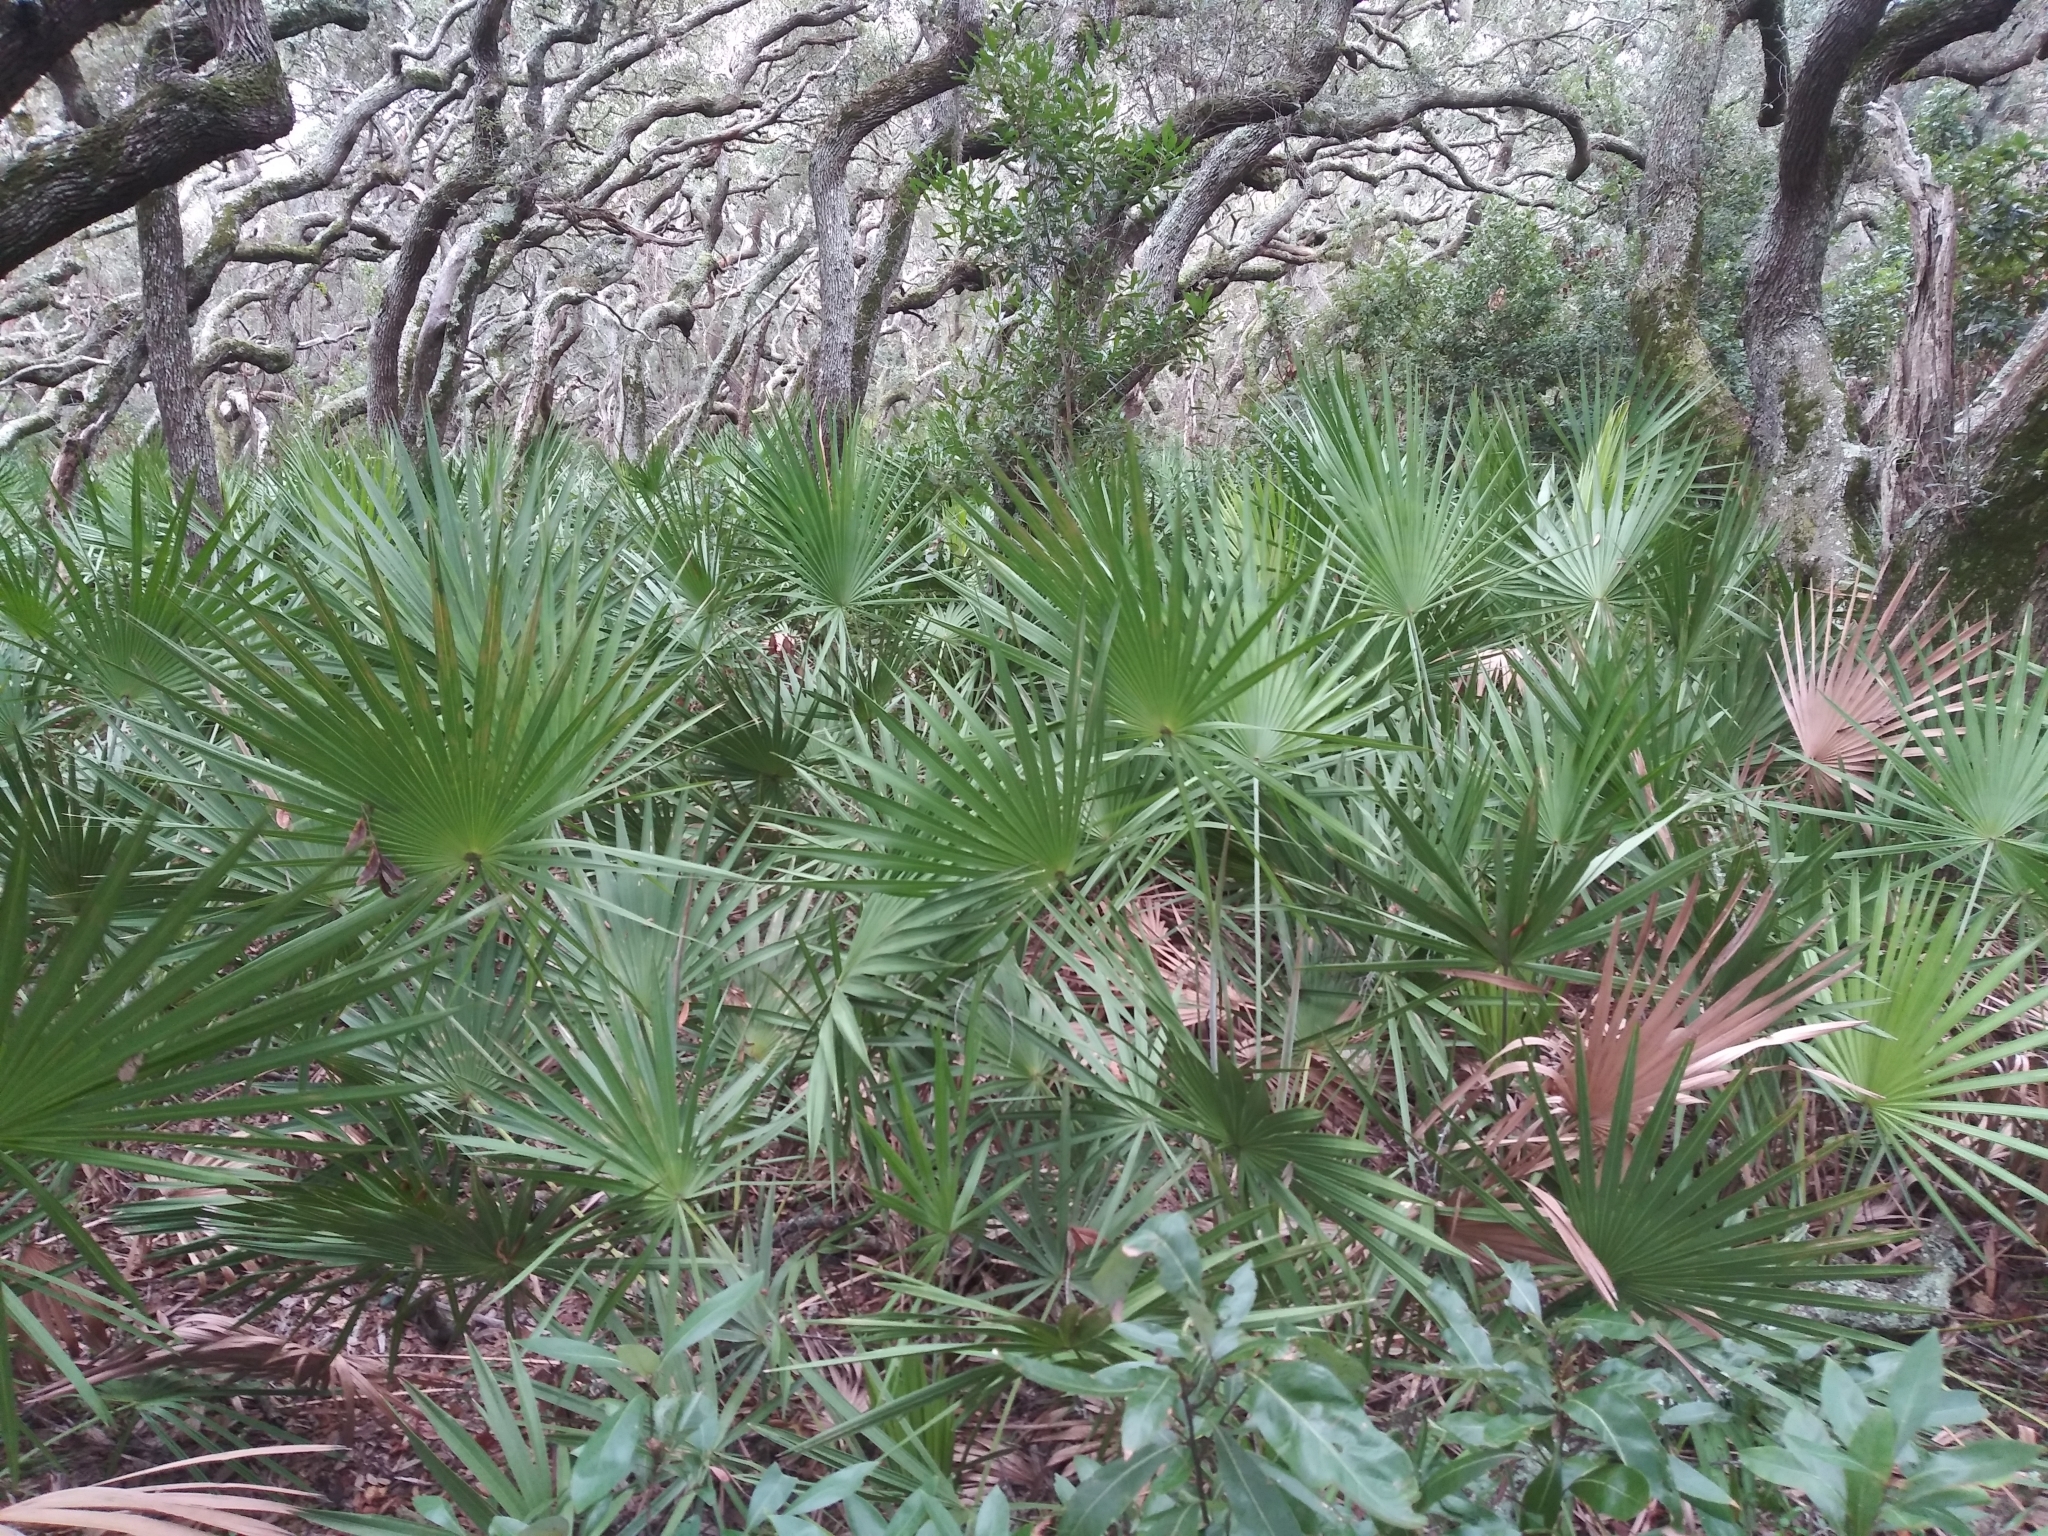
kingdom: Plantae
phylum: Tracheophyta
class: Liliopsida
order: Arecales
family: Arecaceae
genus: Serenoa
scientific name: Serenoa repens
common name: Saw-palmetto
